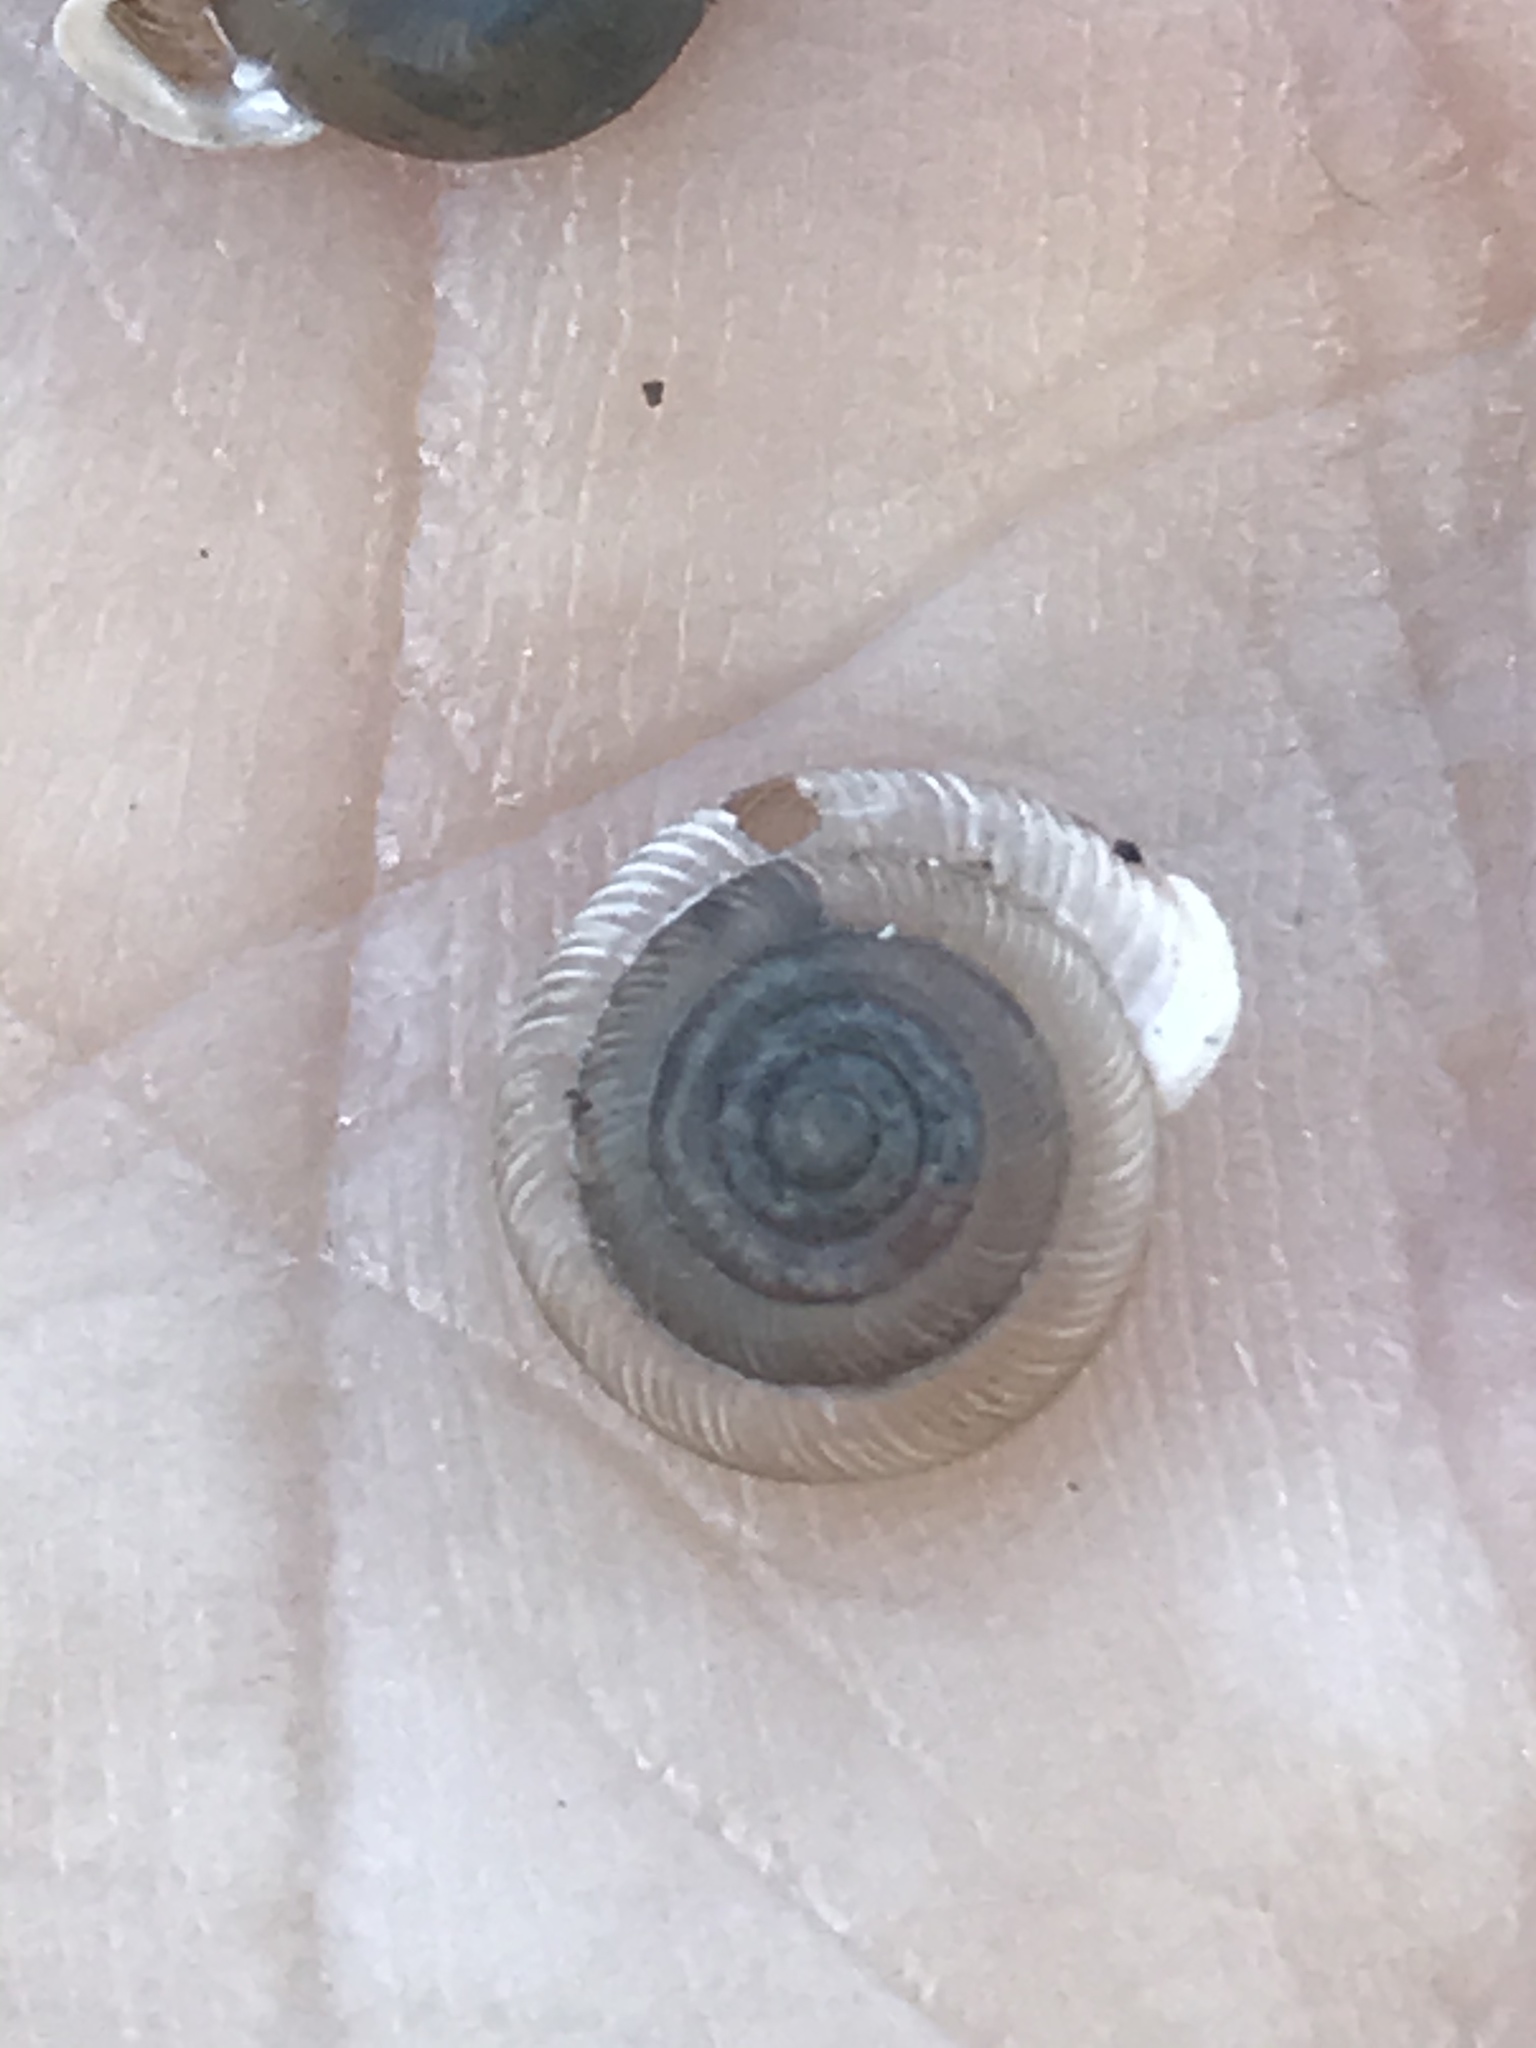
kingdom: Animalia
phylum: Mollusca
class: Gastropoda
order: Stylommatophora
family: Polygyridae
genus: Polygyra
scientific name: Polygyra cereolus
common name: Southern flatcone snail
